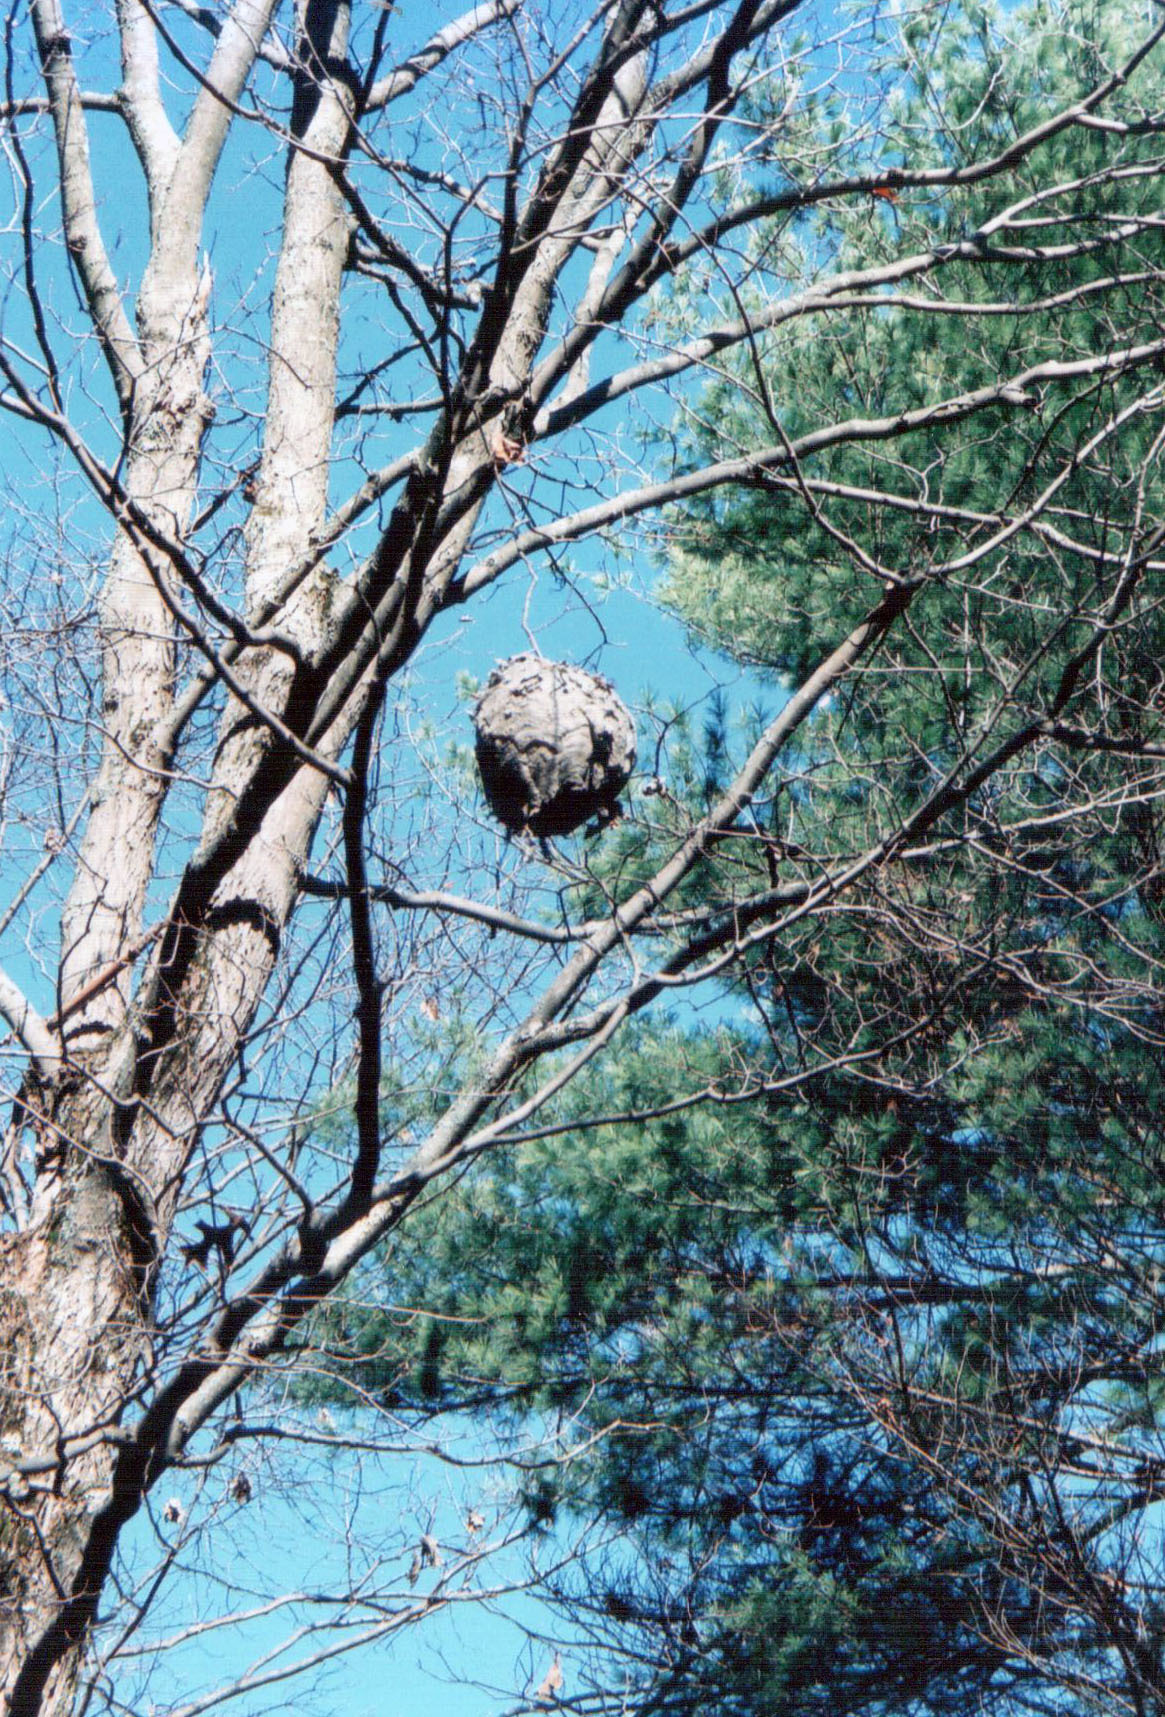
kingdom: Animalia
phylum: Arthropoda
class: Insecta
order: Hymenoptera
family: Vespidae
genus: Dolichovespula
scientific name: Dolichovespula maculata
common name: Bald-faced hornet
